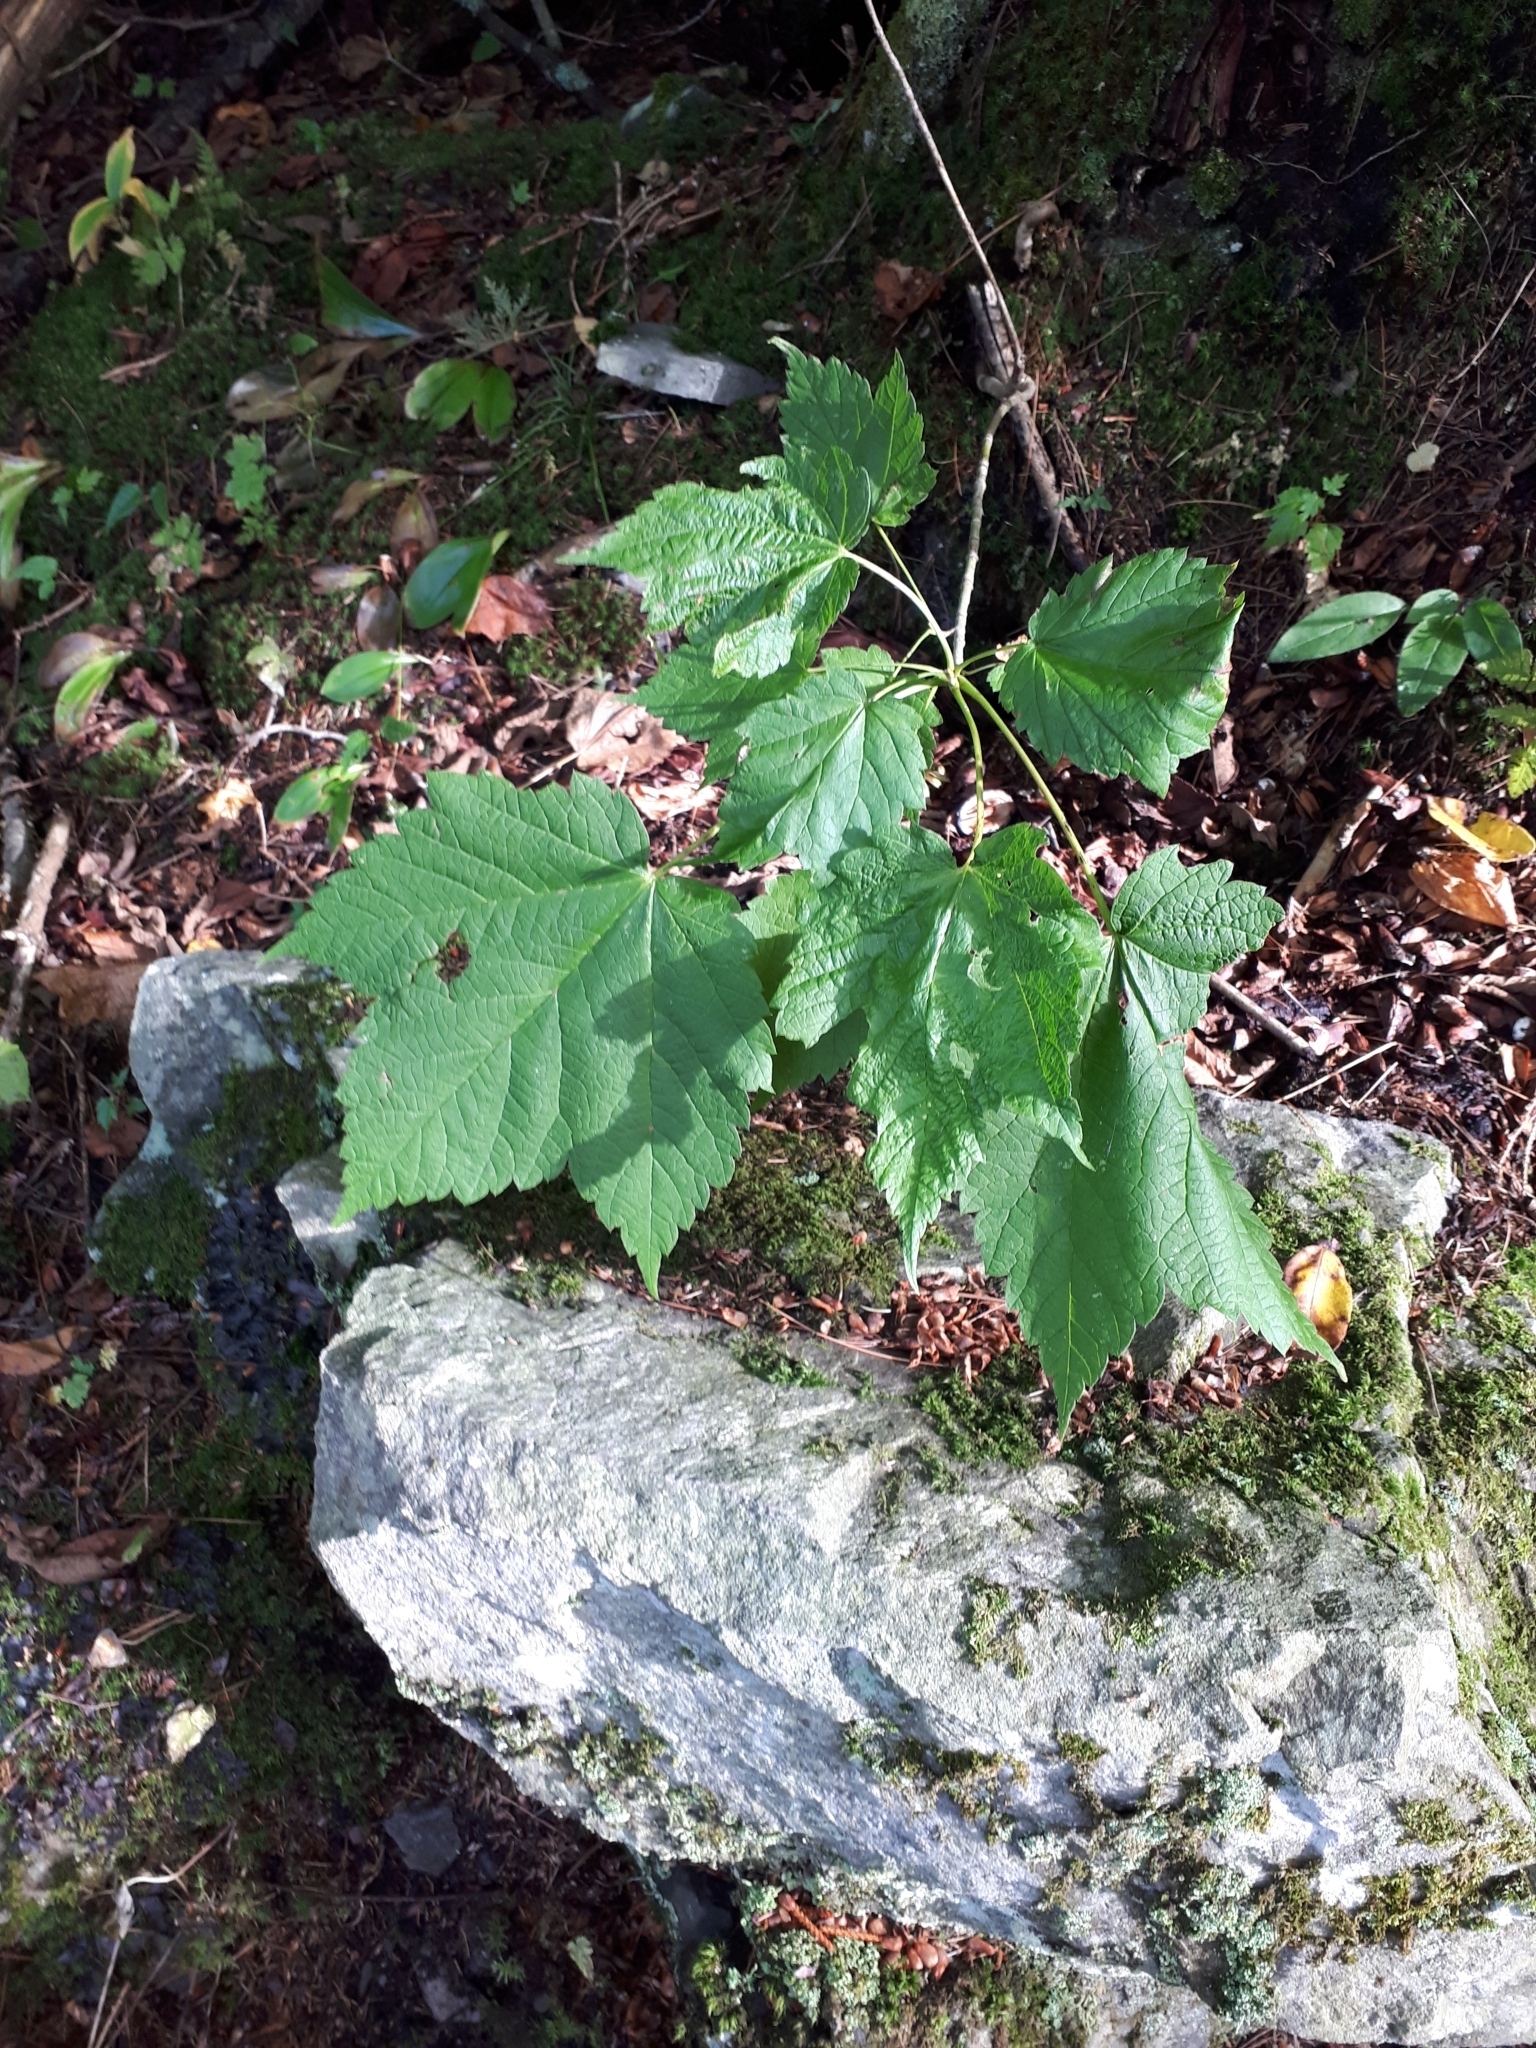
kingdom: Plantae
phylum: Tracheophyta
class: Magnoliopsida
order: Sapindales
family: Sapindaceae
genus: Acer
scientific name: Acer spicatum
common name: Mountain maple
